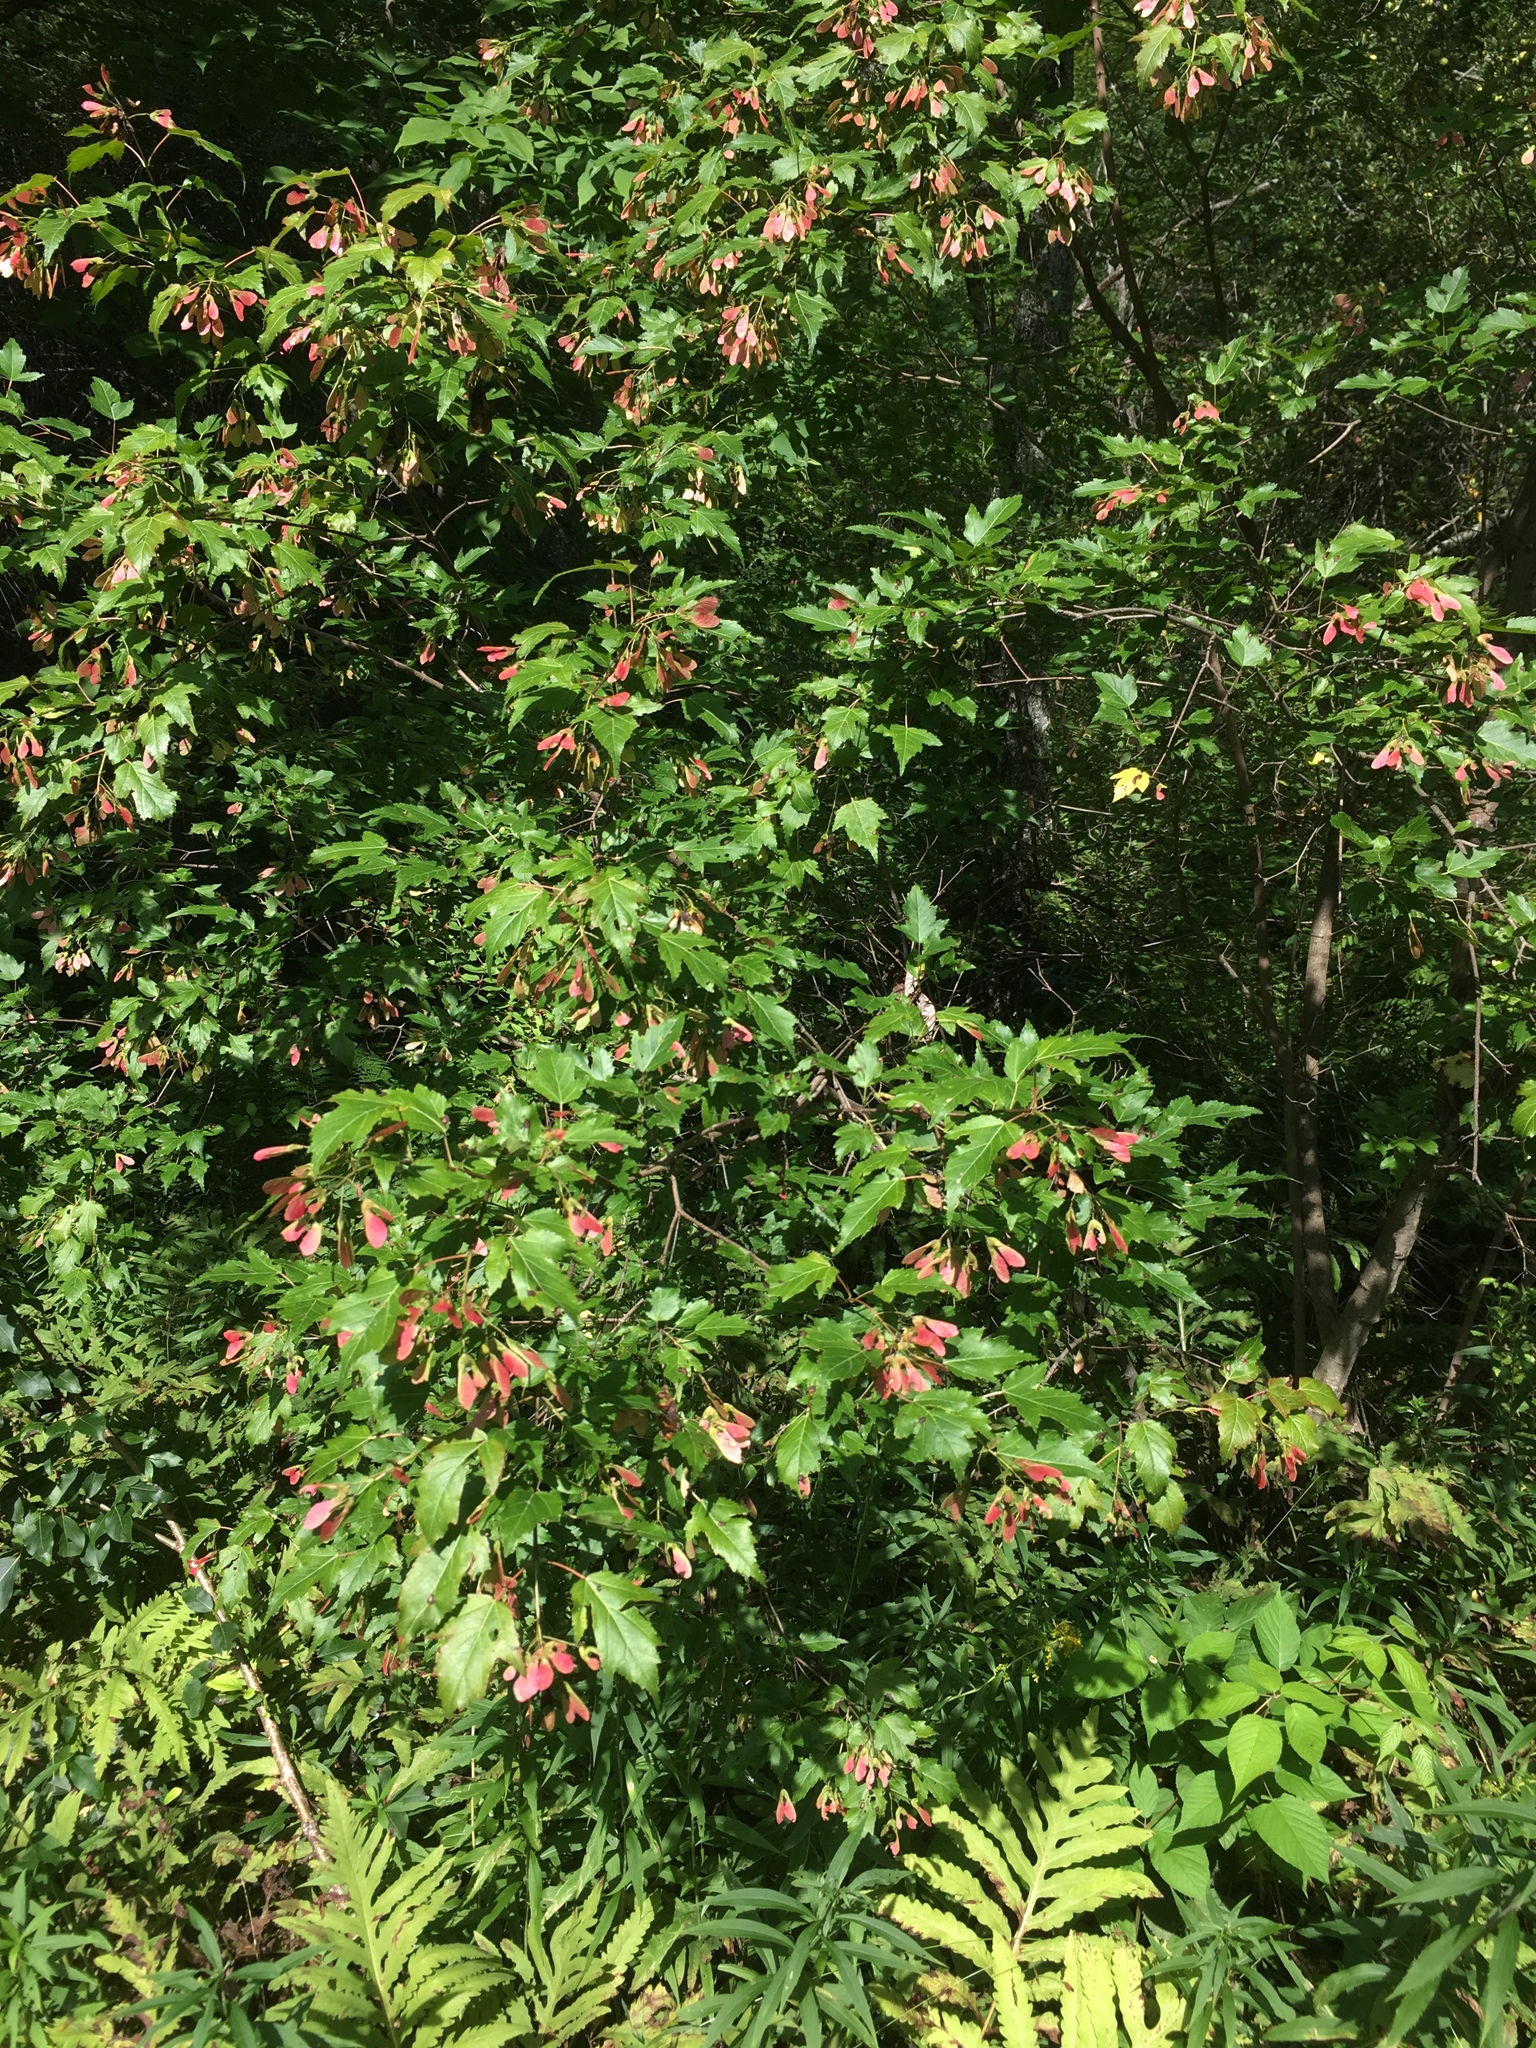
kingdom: Plantae
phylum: Tracheophyta
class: Magnoliopsida
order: Sapindales
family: Sapindaceae
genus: Acer
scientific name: Acer tataricum
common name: Tartar maple
